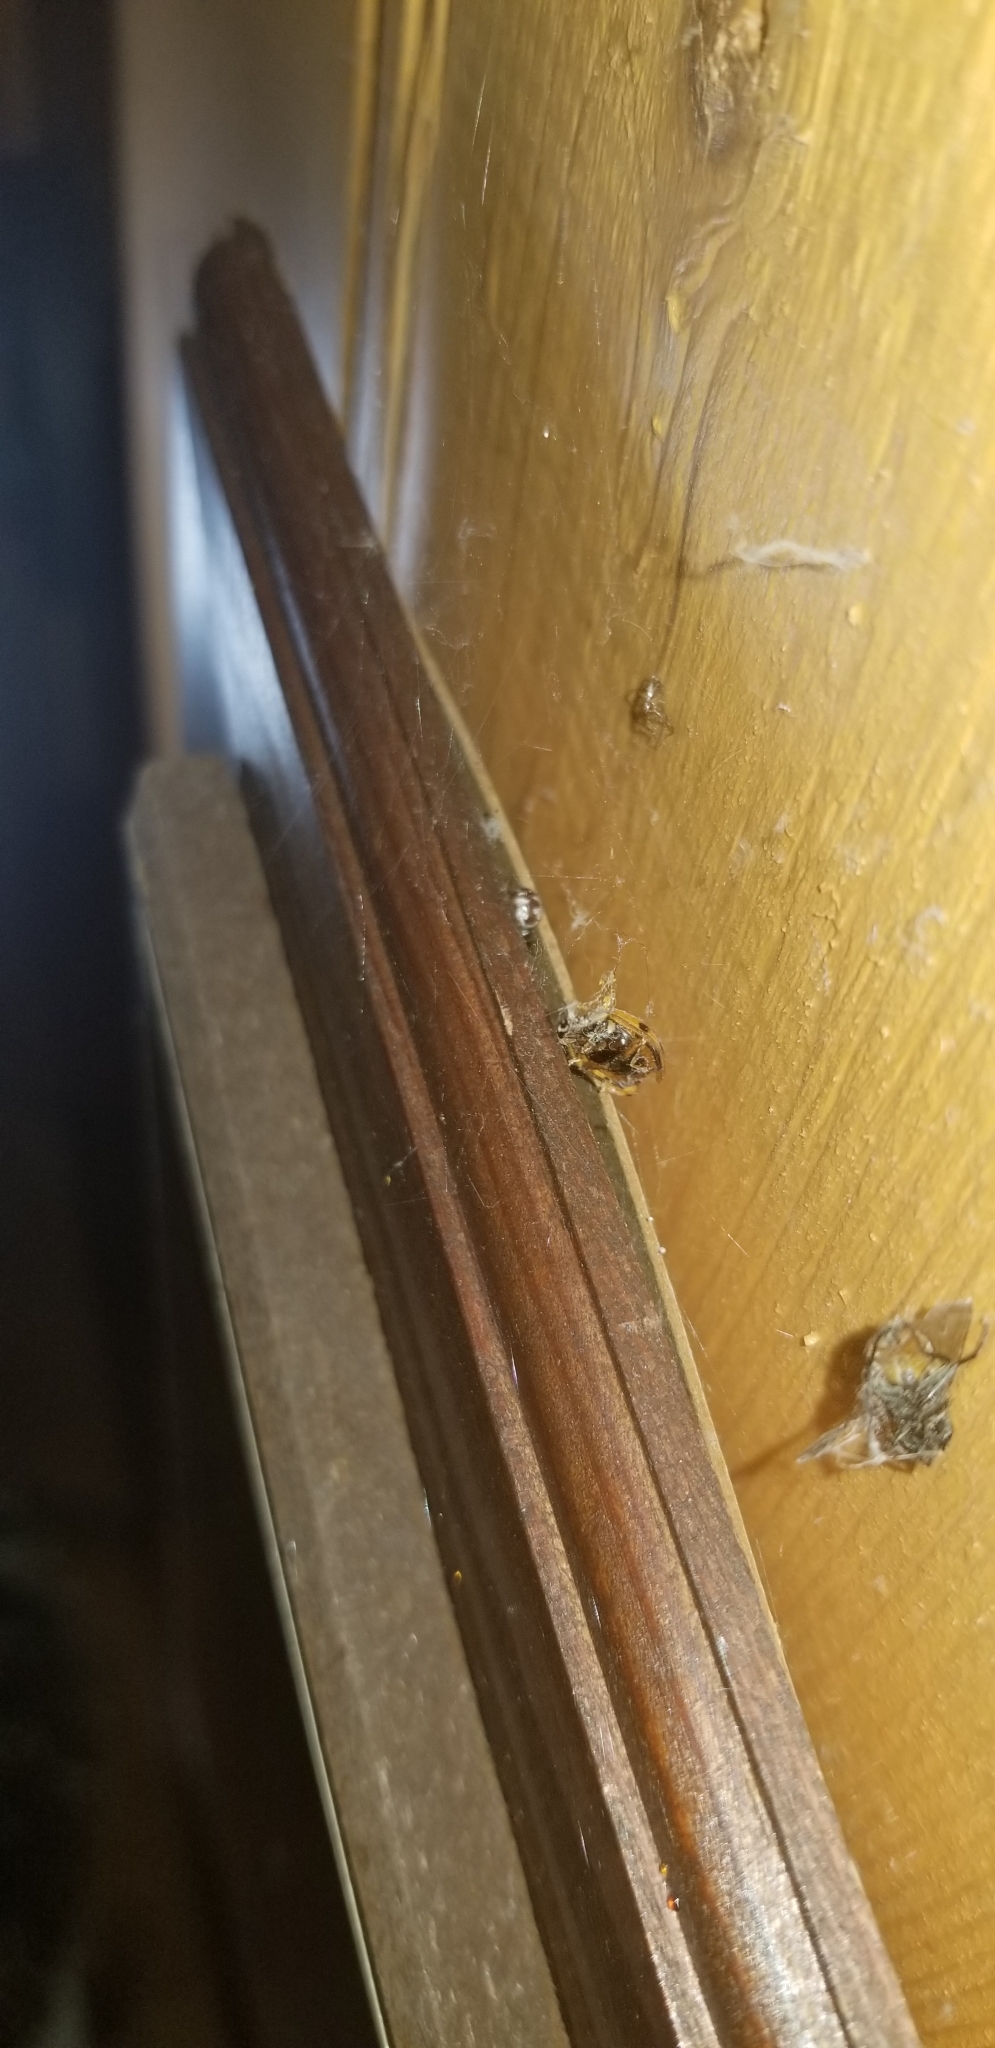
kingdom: Animalia
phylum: Arthropoda
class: Arachnida
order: Araneae
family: Theridiidae
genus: Parasteatoda
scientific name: Parasteatoda tepidariorum
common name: Common house spider
